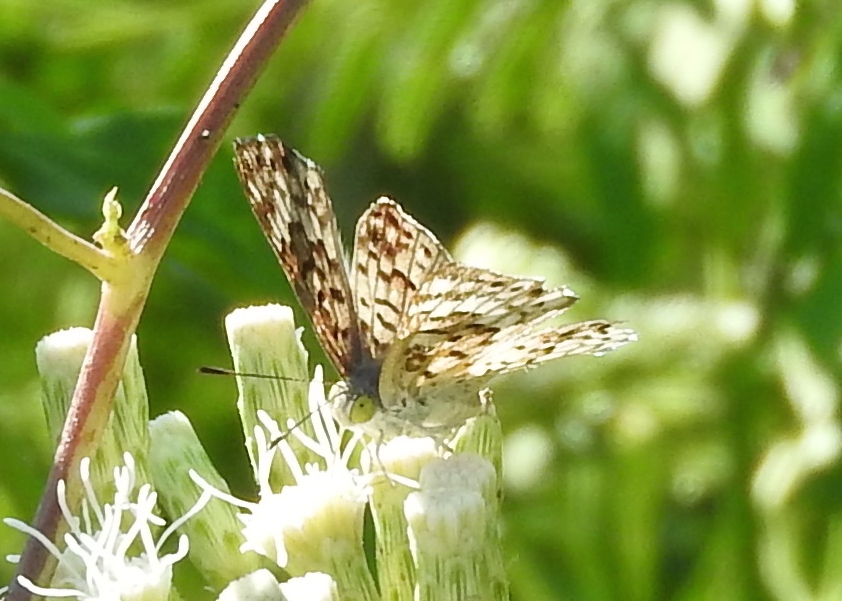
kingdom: Animalia
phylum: Arthropoda
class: Insecta
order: Diptera
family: Acroceridae
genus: Lasia
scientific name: Lasia
